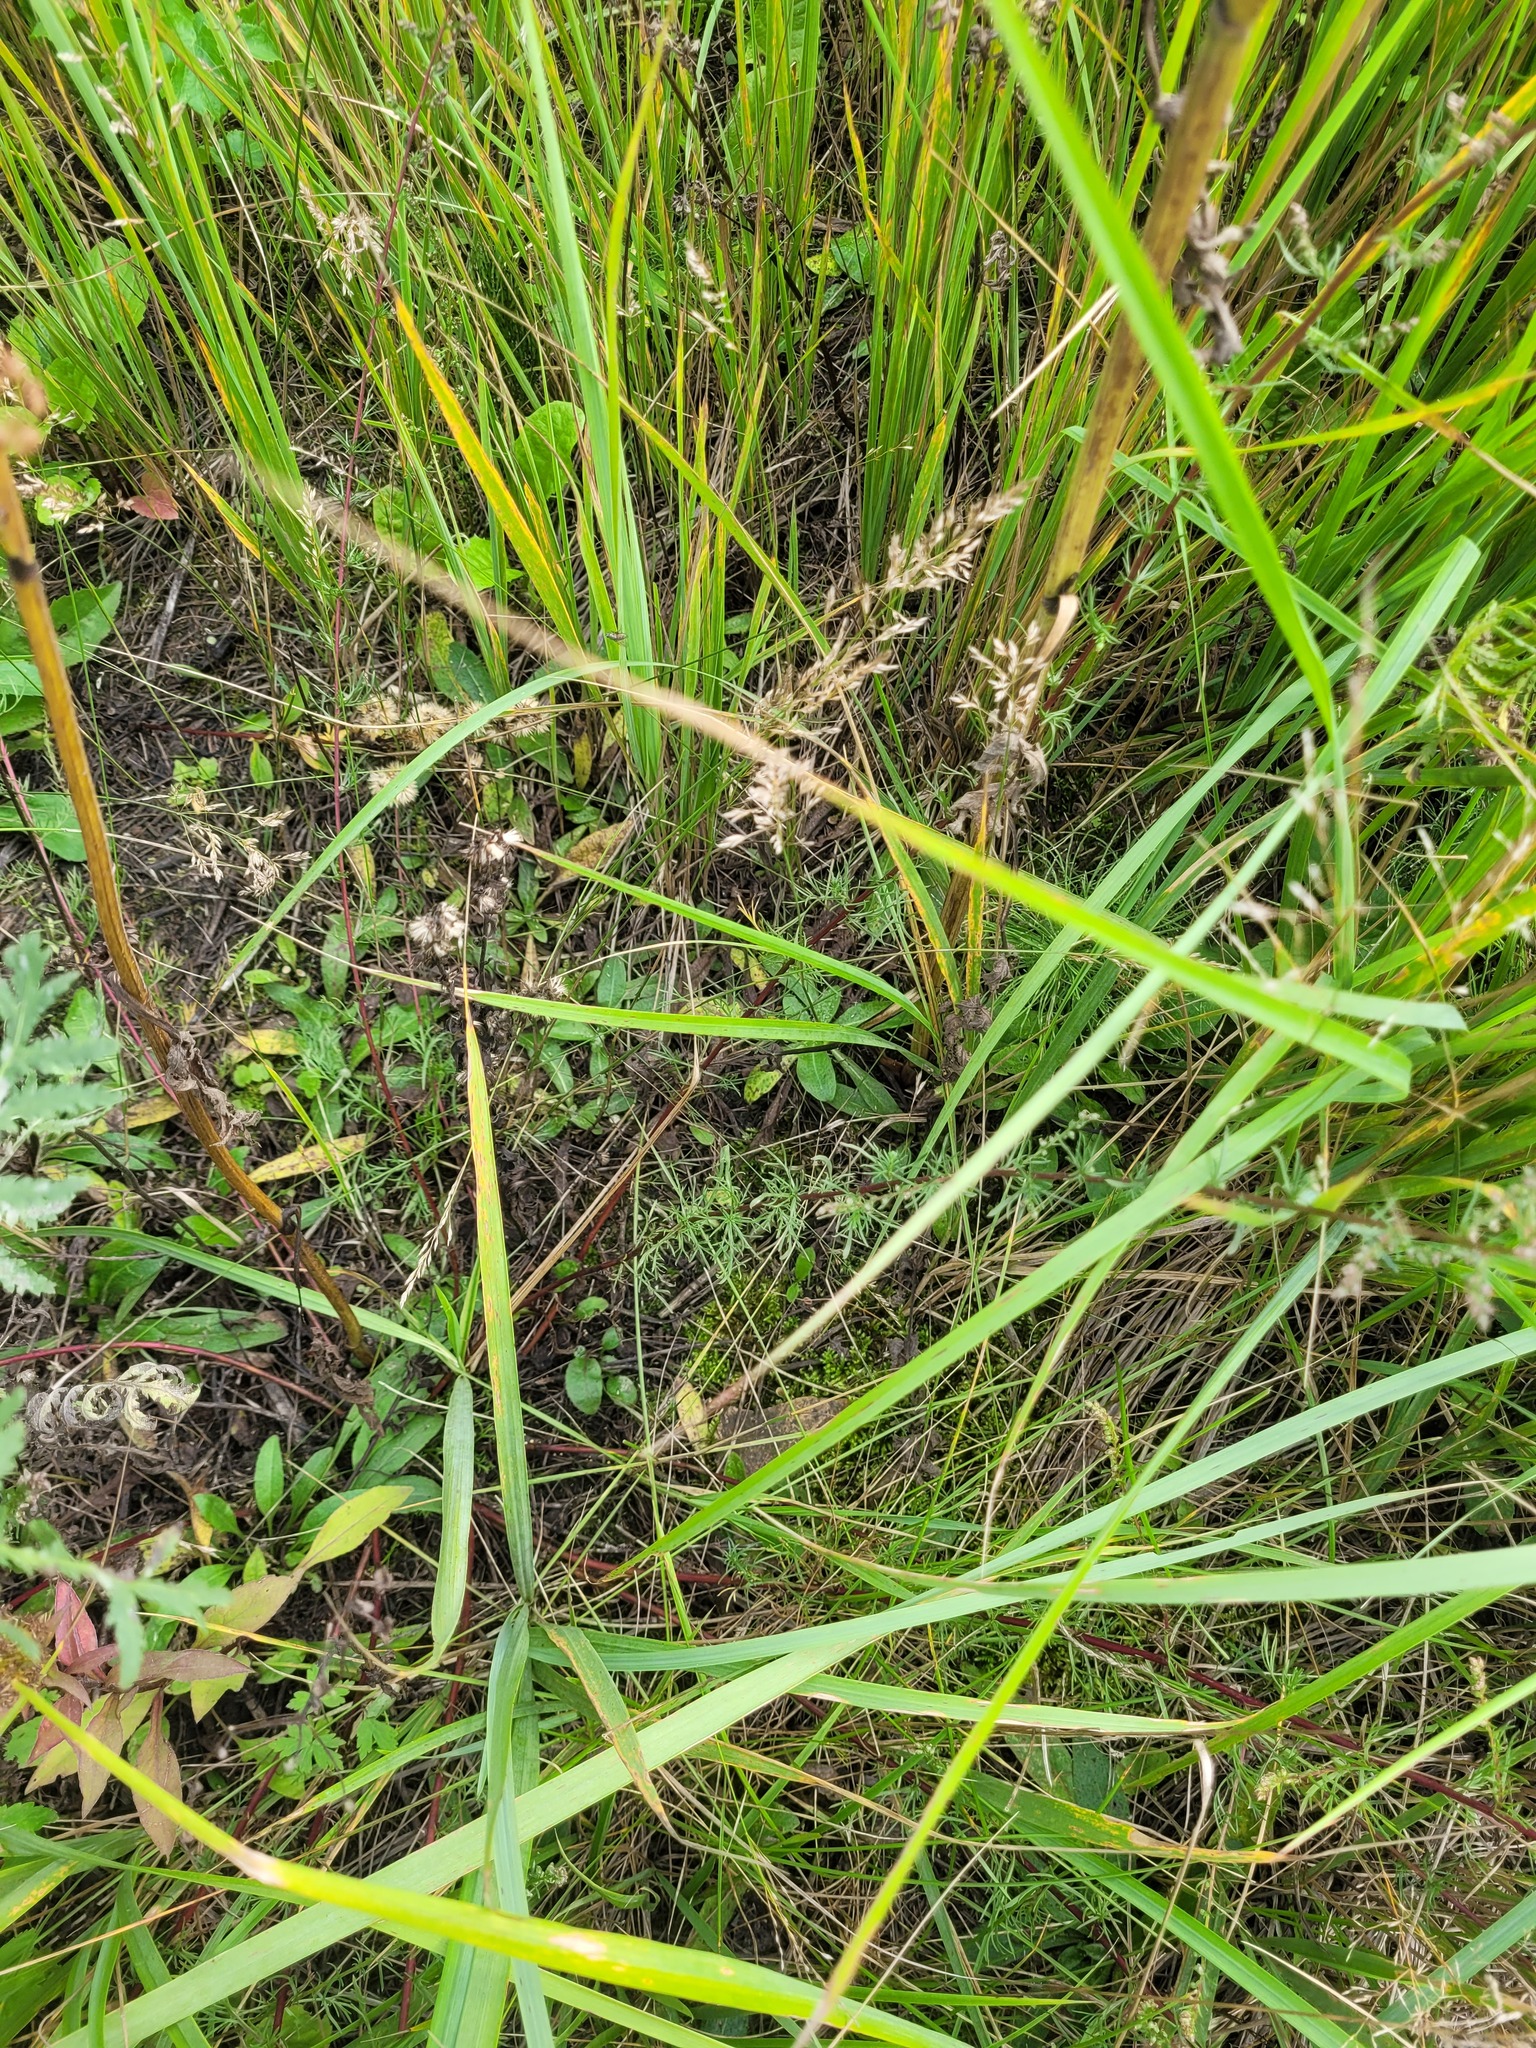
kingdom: Plantae
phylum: Tracheophyta
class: Magnoliopsida
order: Asterales
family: Asteraceae
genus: Artemisia
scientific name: Artemisia campestris
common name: Field wormwood
